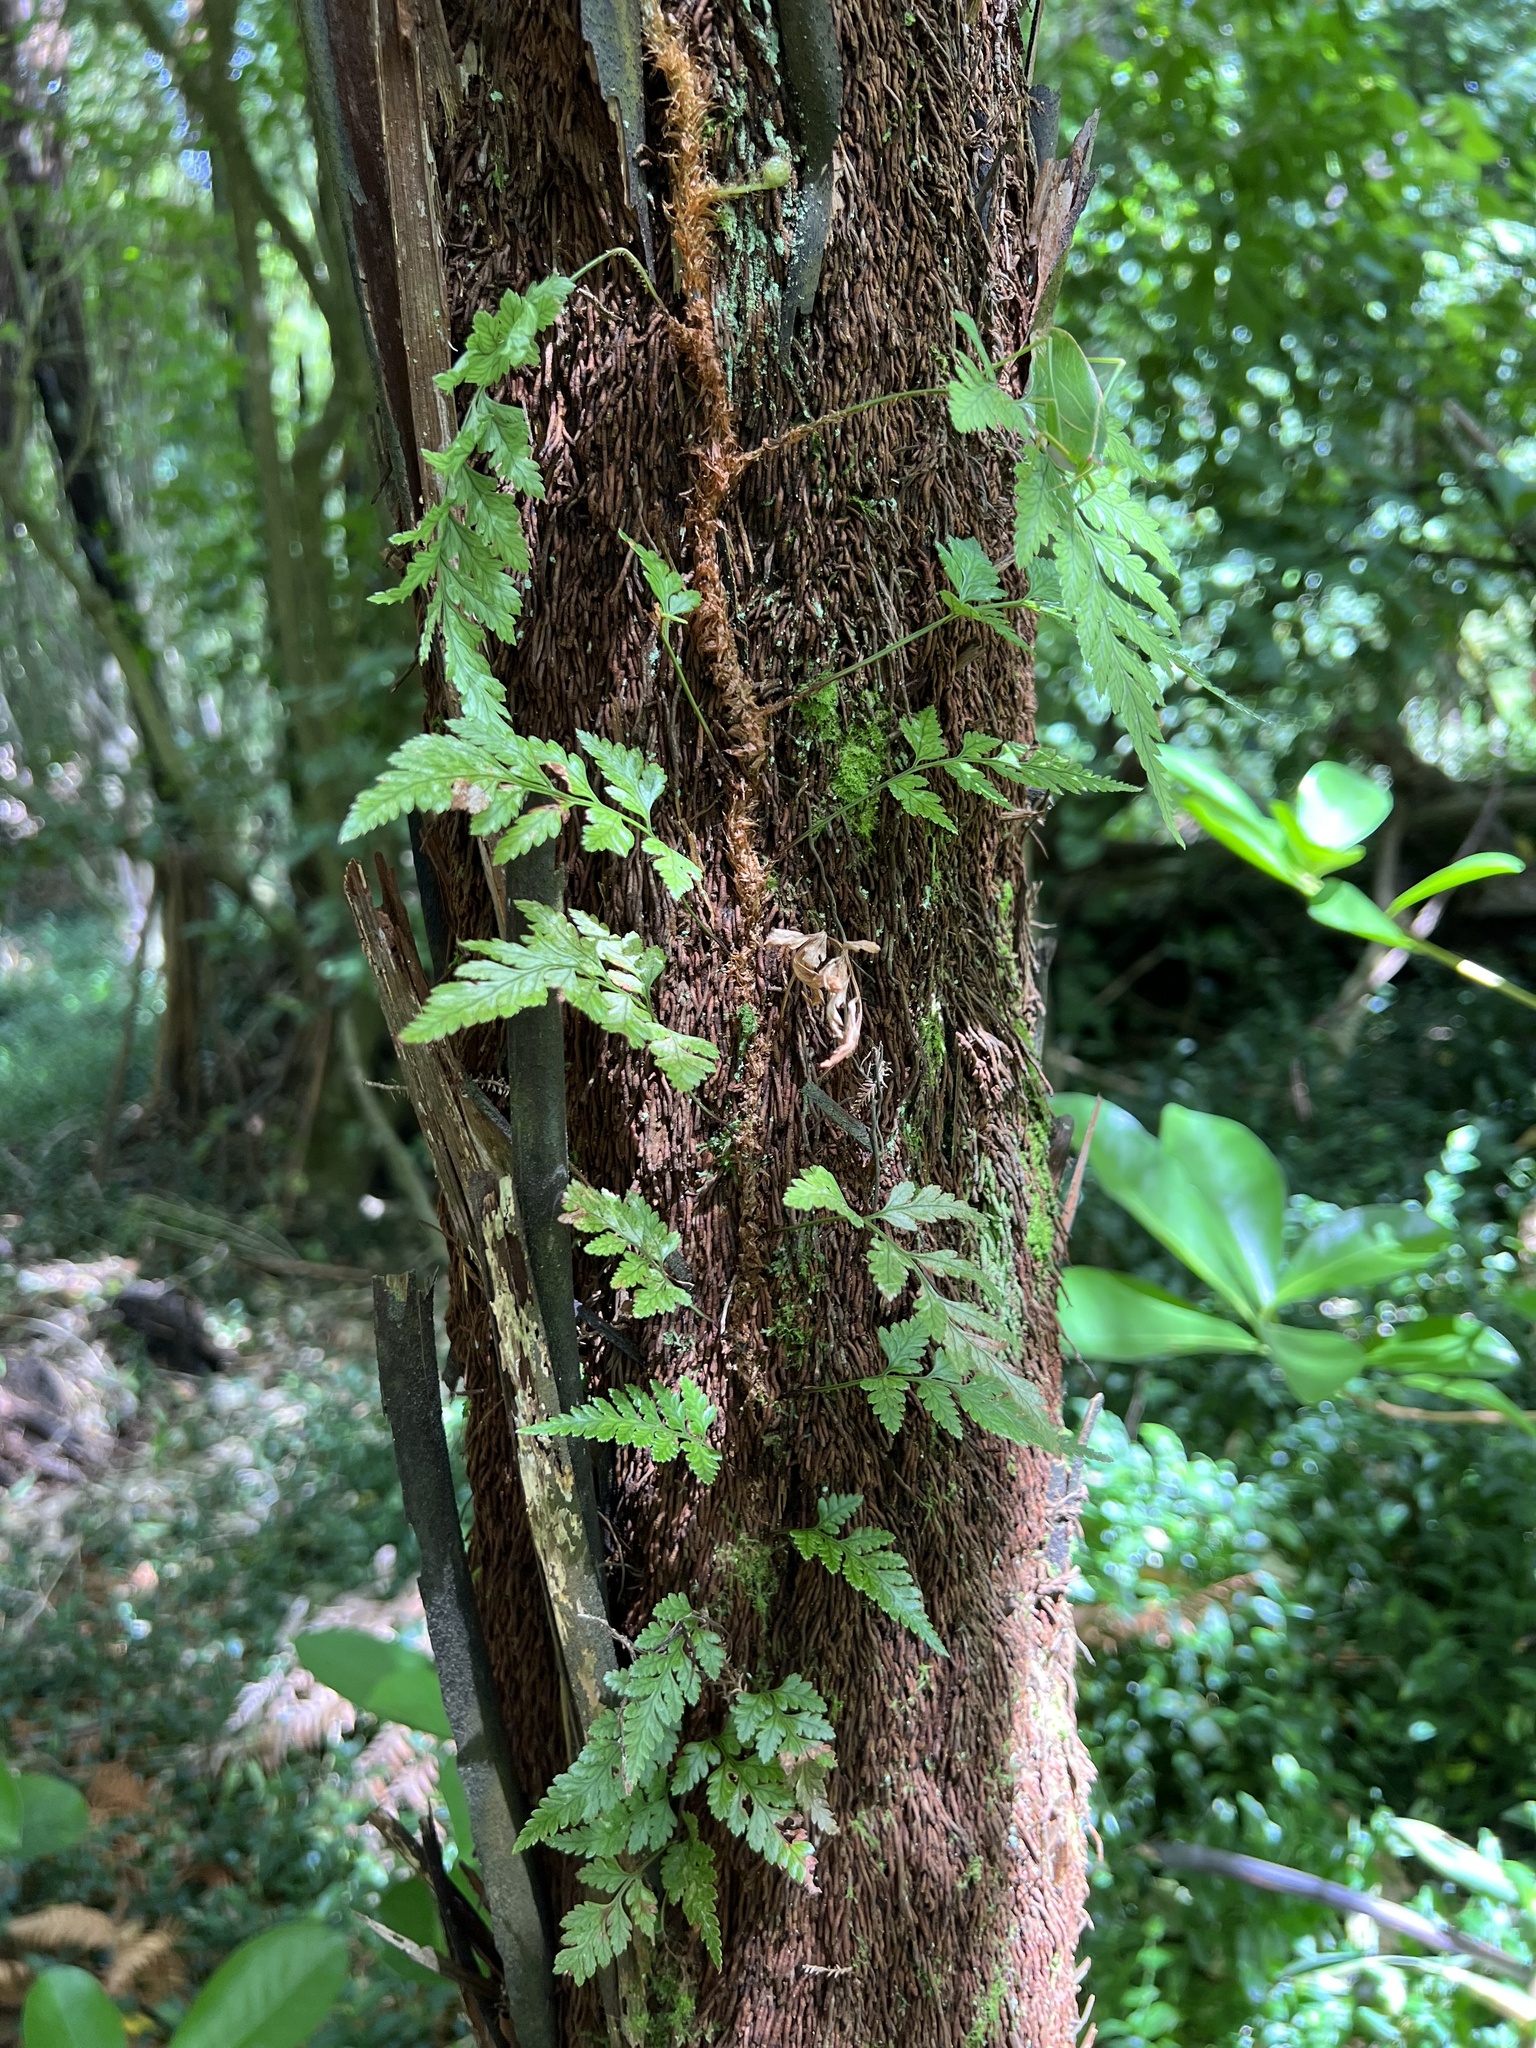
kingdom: Plantae
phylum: Tracheophyta
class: Polypodiopsida
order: Polypodiales
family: Dryopteridaceae
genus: Rumohra
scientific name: Rumohra adiantiformis
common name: Leather fern
